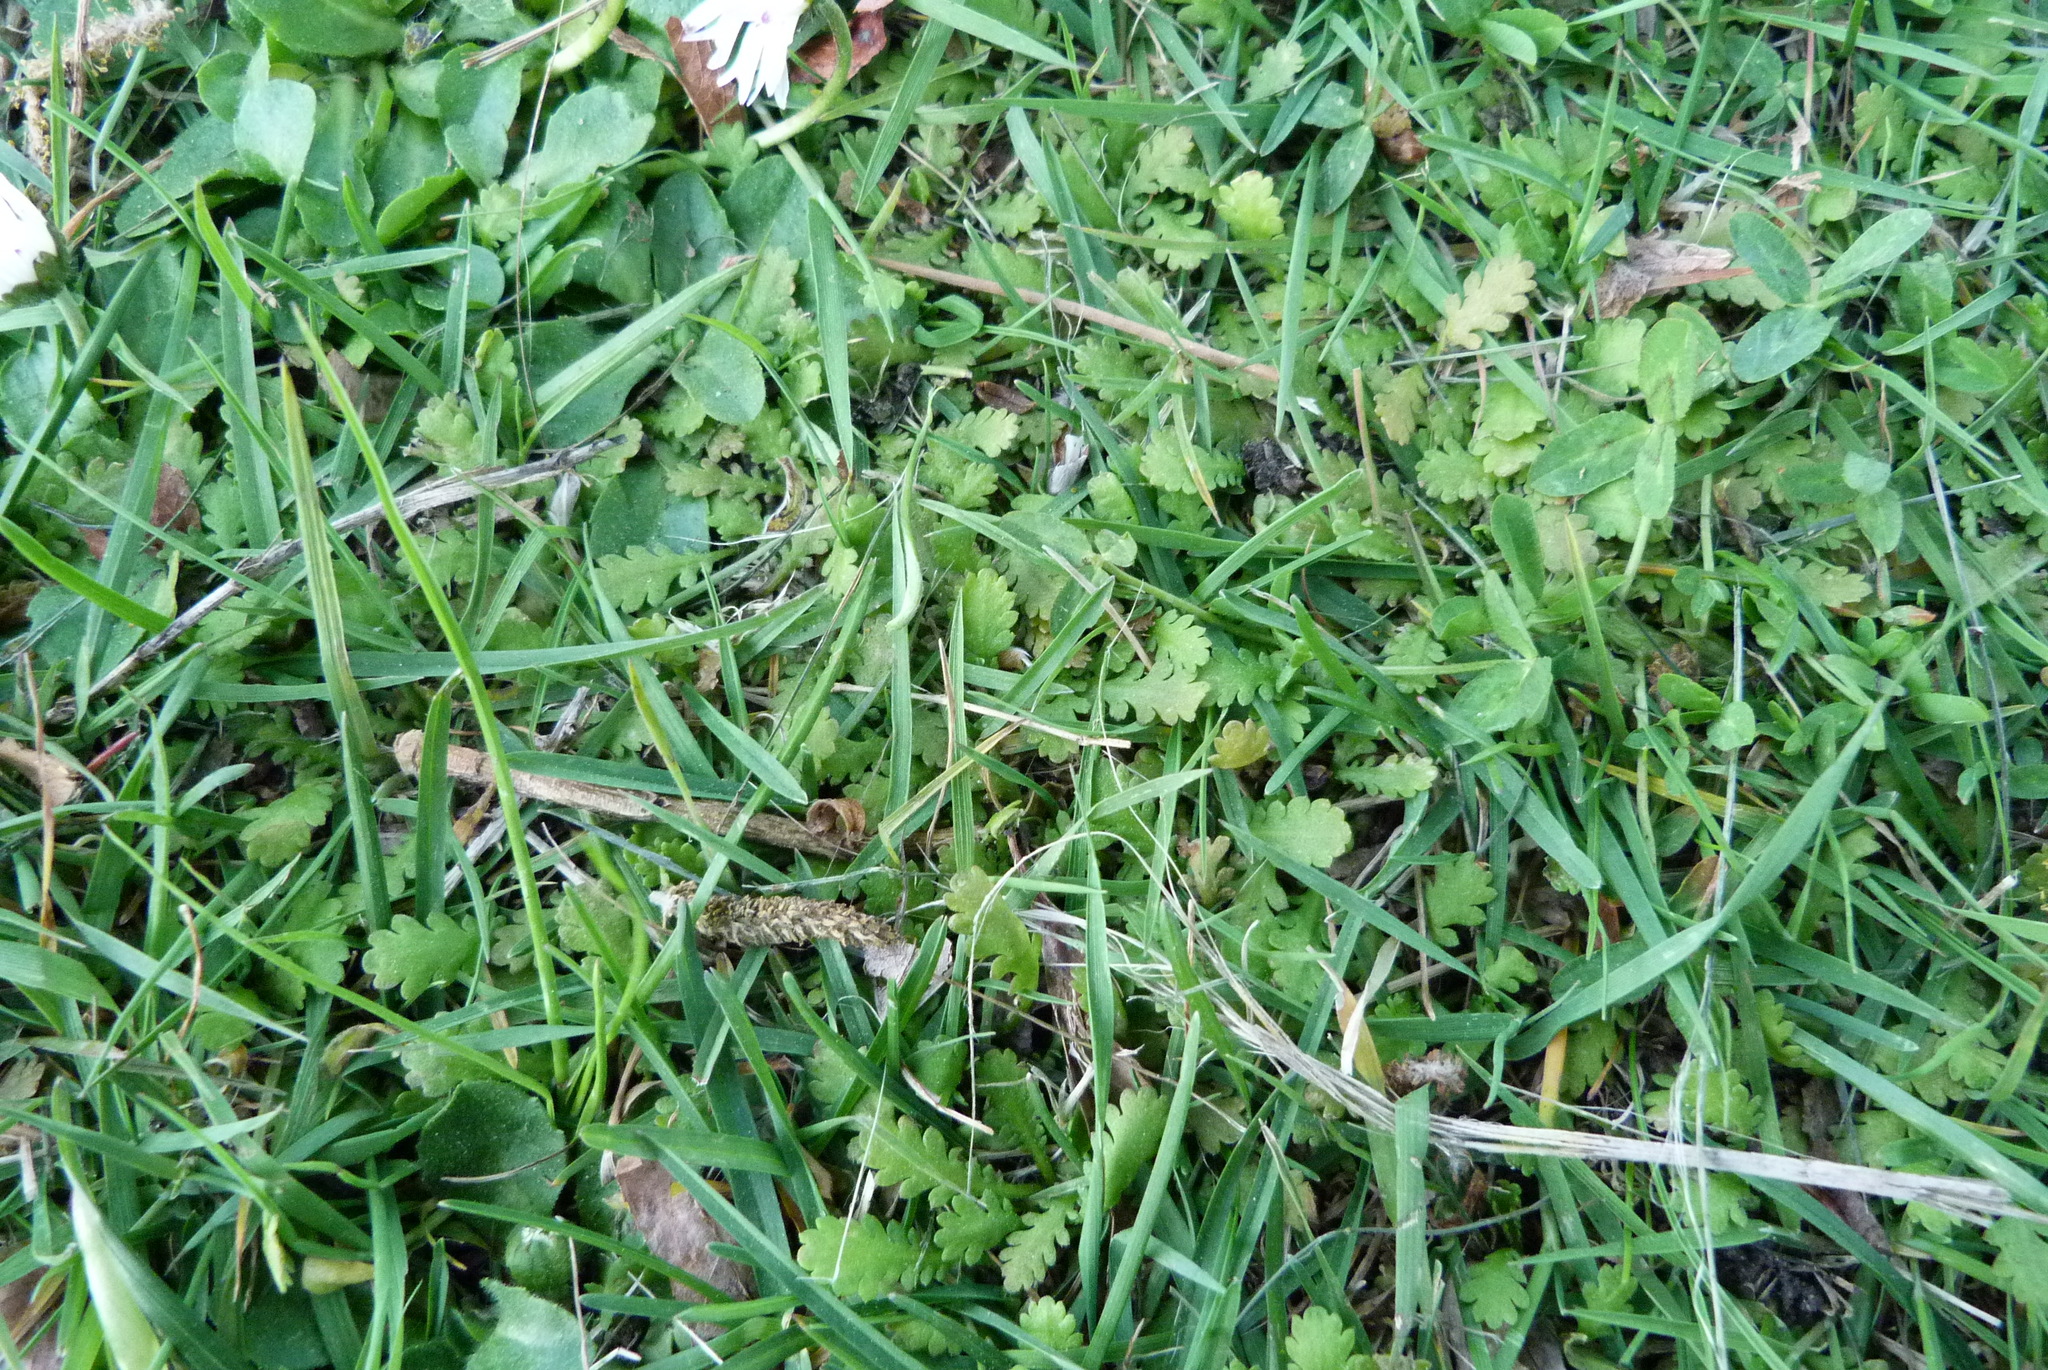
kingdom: Plantae
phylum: Tracheophyta
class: Magnoliopsida
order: Asterales
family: Asteraceae
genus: Leptinella
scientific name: Leptinella dioica
